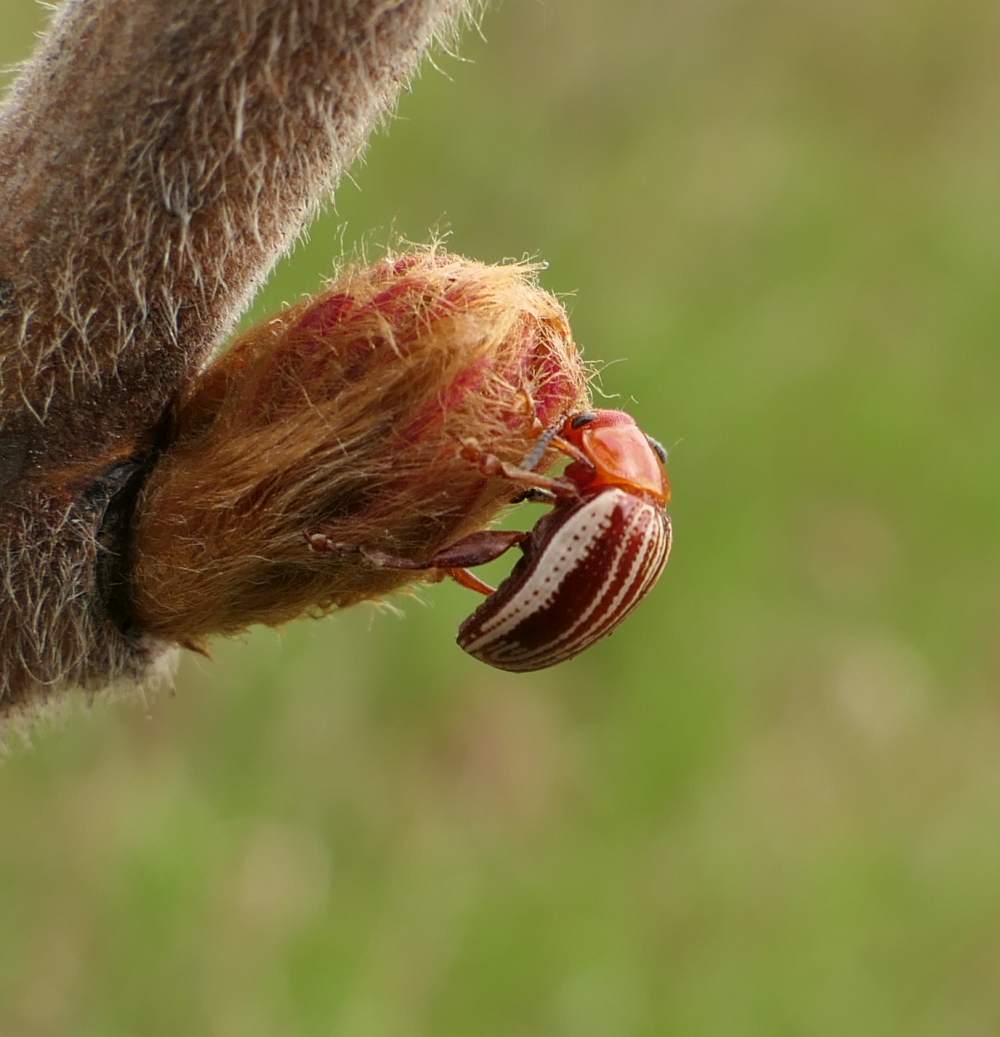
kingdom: Animalia
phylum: Arthropoda
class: Insecta
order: Coleoptera
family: Chrysomelidae
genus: Blepharida
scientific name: Blepharida rhois
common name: Sumac flea beetle
